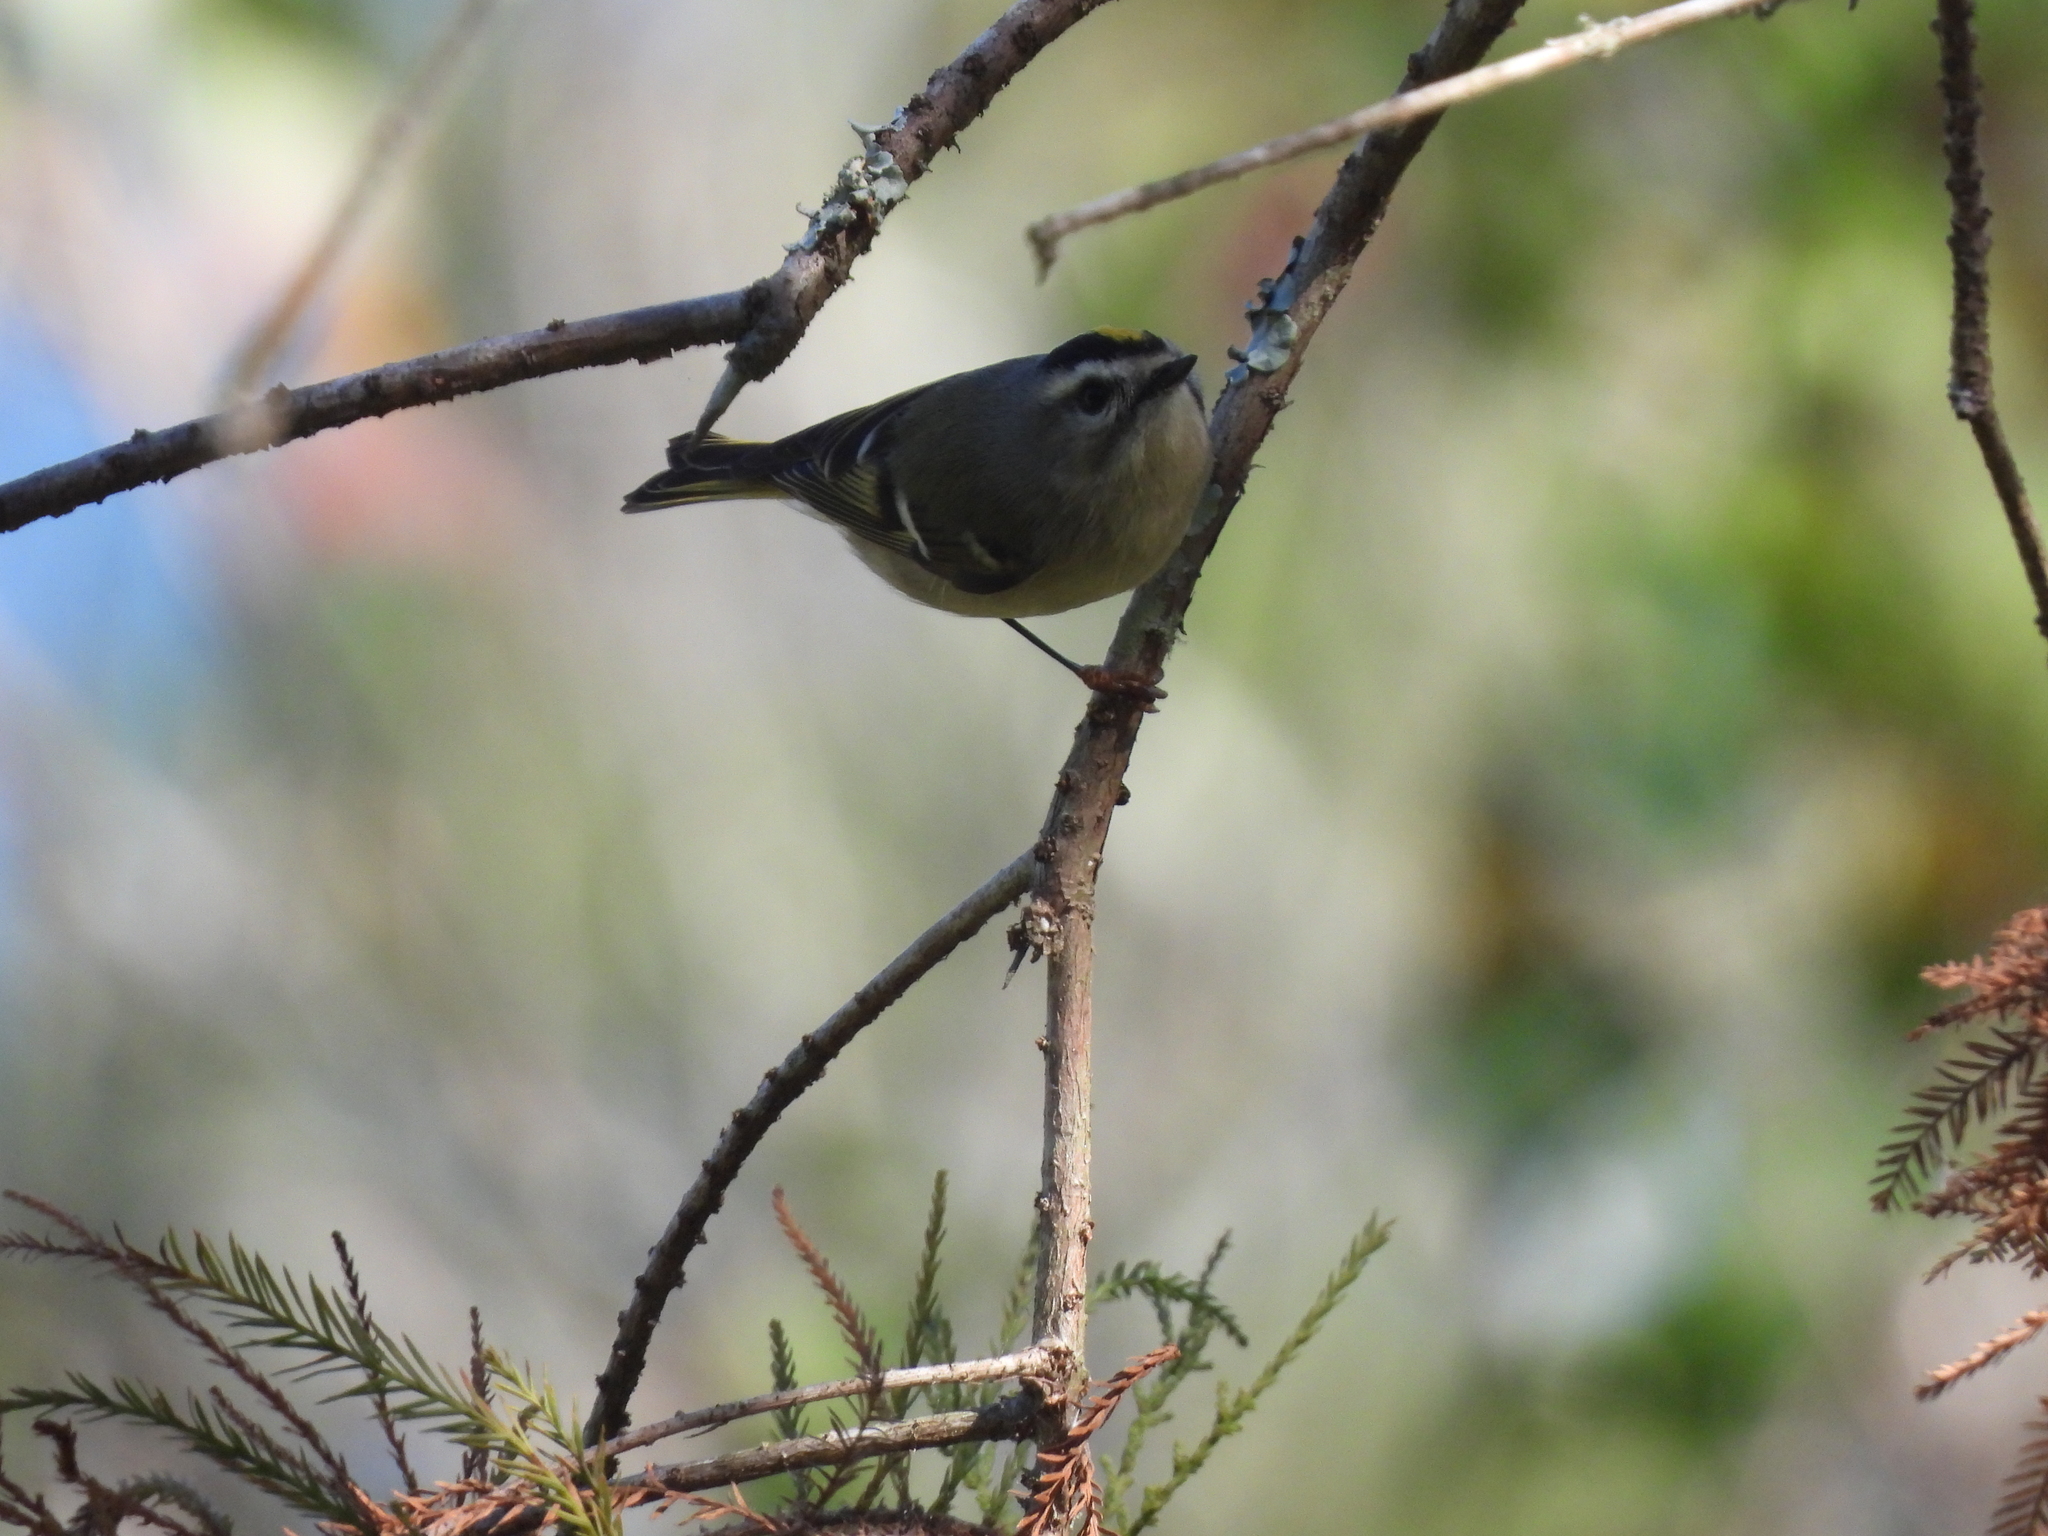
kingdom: Animalia
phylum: Chordata
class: Aves
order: Passeriformes
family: Regulidae
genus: Regulus
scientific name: Regulus satrapa
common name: Golden-crowned kinglet
